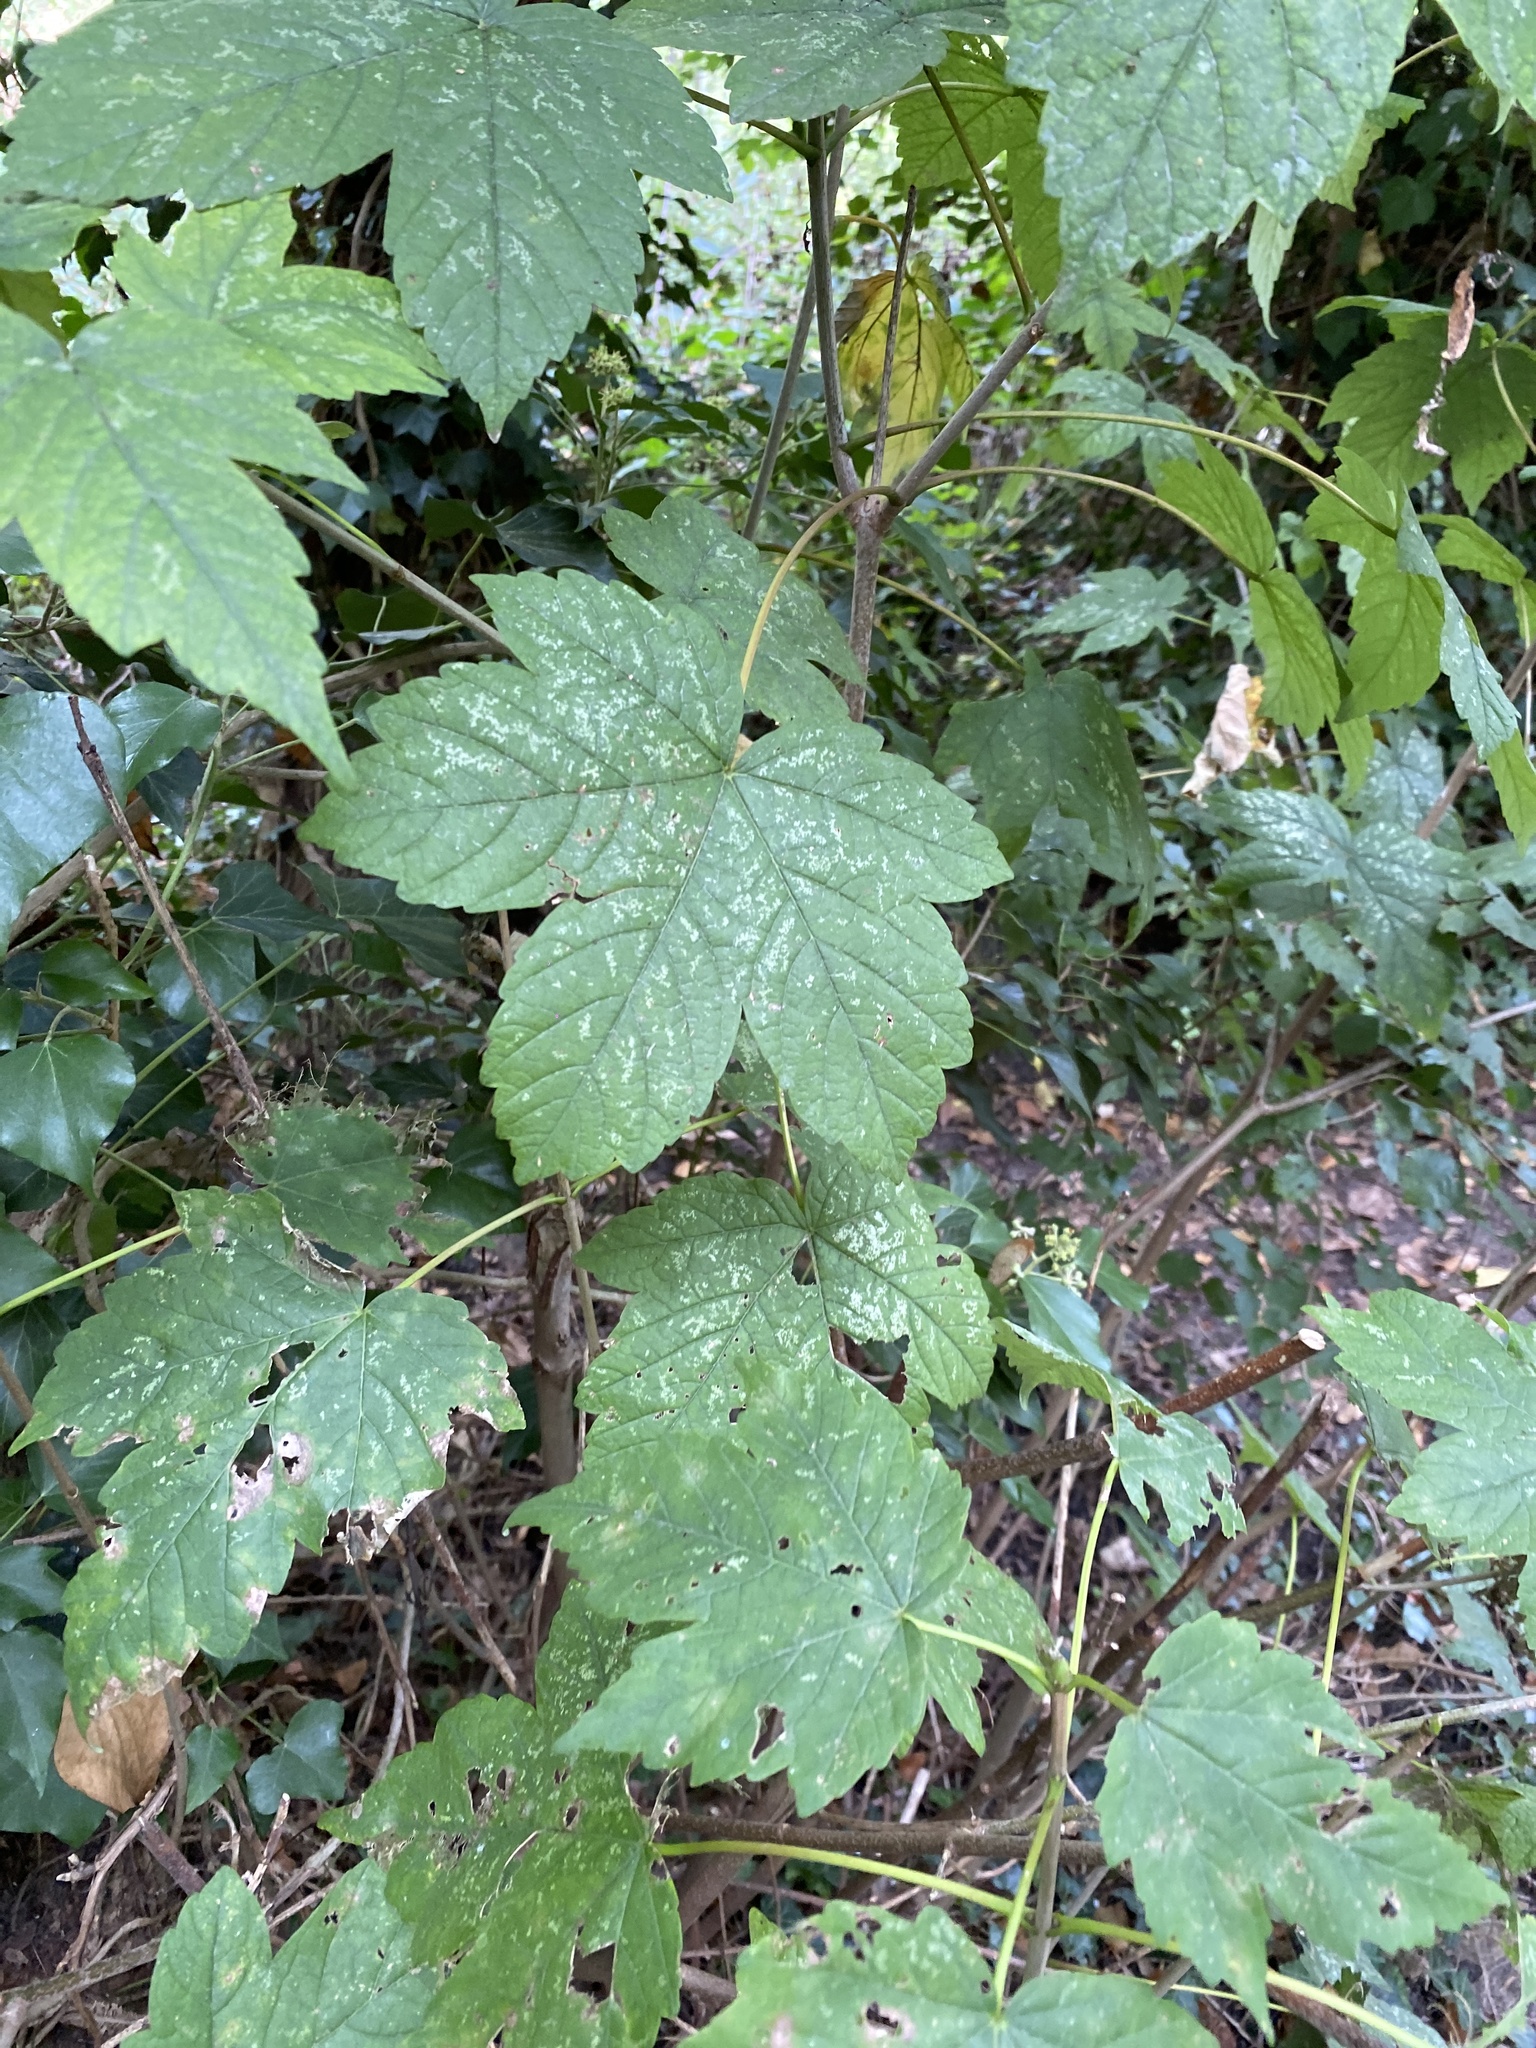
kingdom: Plantae
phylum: Tracheophyta
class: Magnoliopsida
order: Sapindales
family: Sapindaceae
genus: Acer
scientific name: Acer pseudoplatanus
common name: Sycamore
